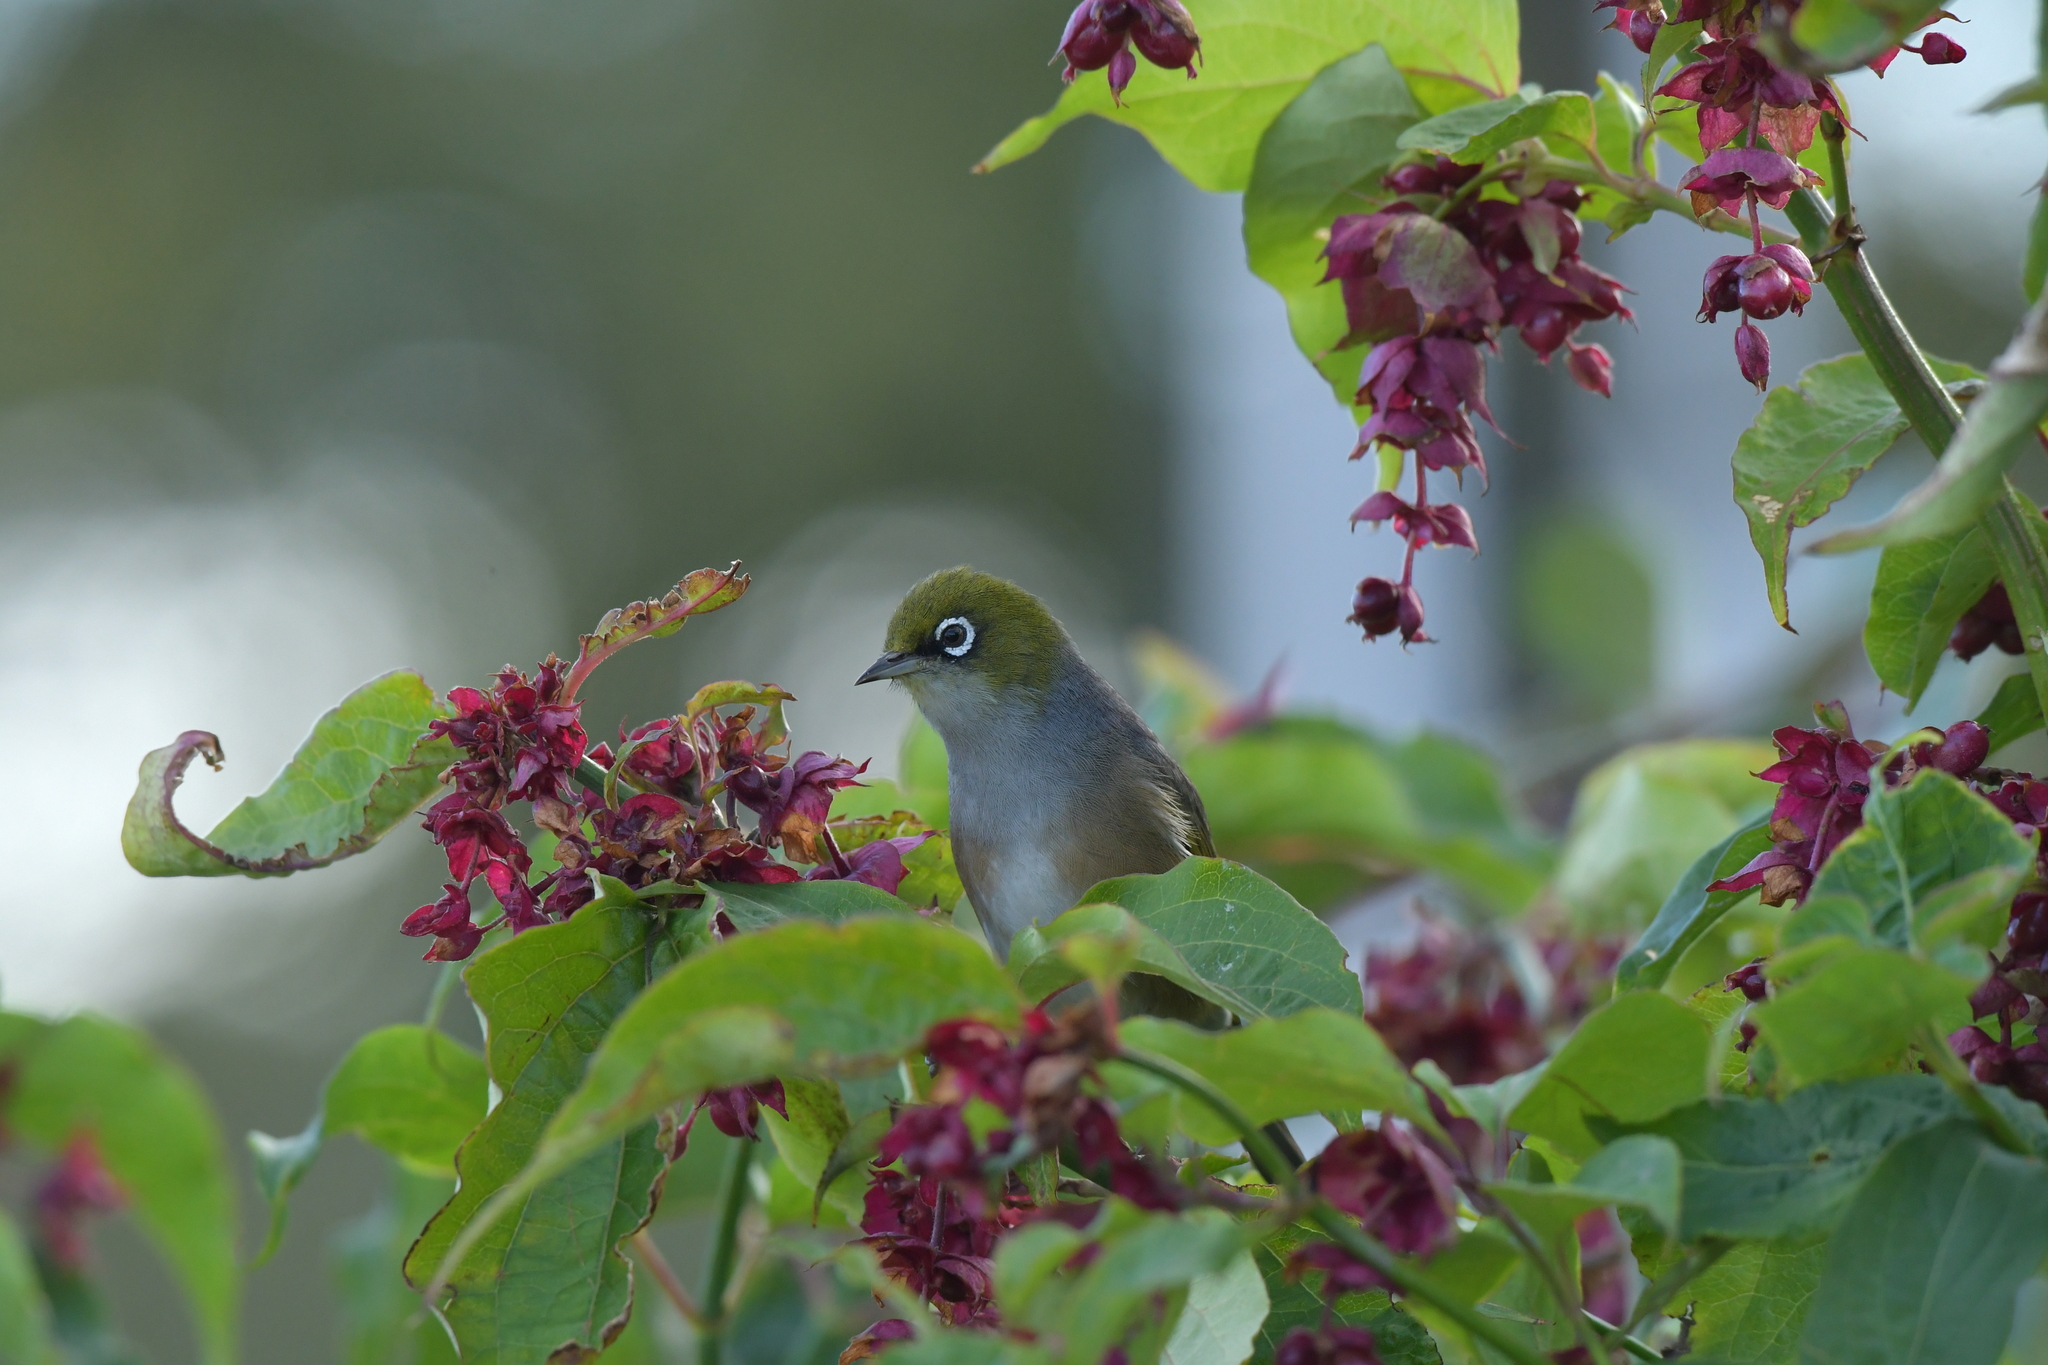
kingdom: Animalia
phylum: Chordata
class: Aves
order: Passeriformes
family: Zosteropidae
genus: Zosterops
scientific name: Zosterops lateralis
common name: Silvereye
